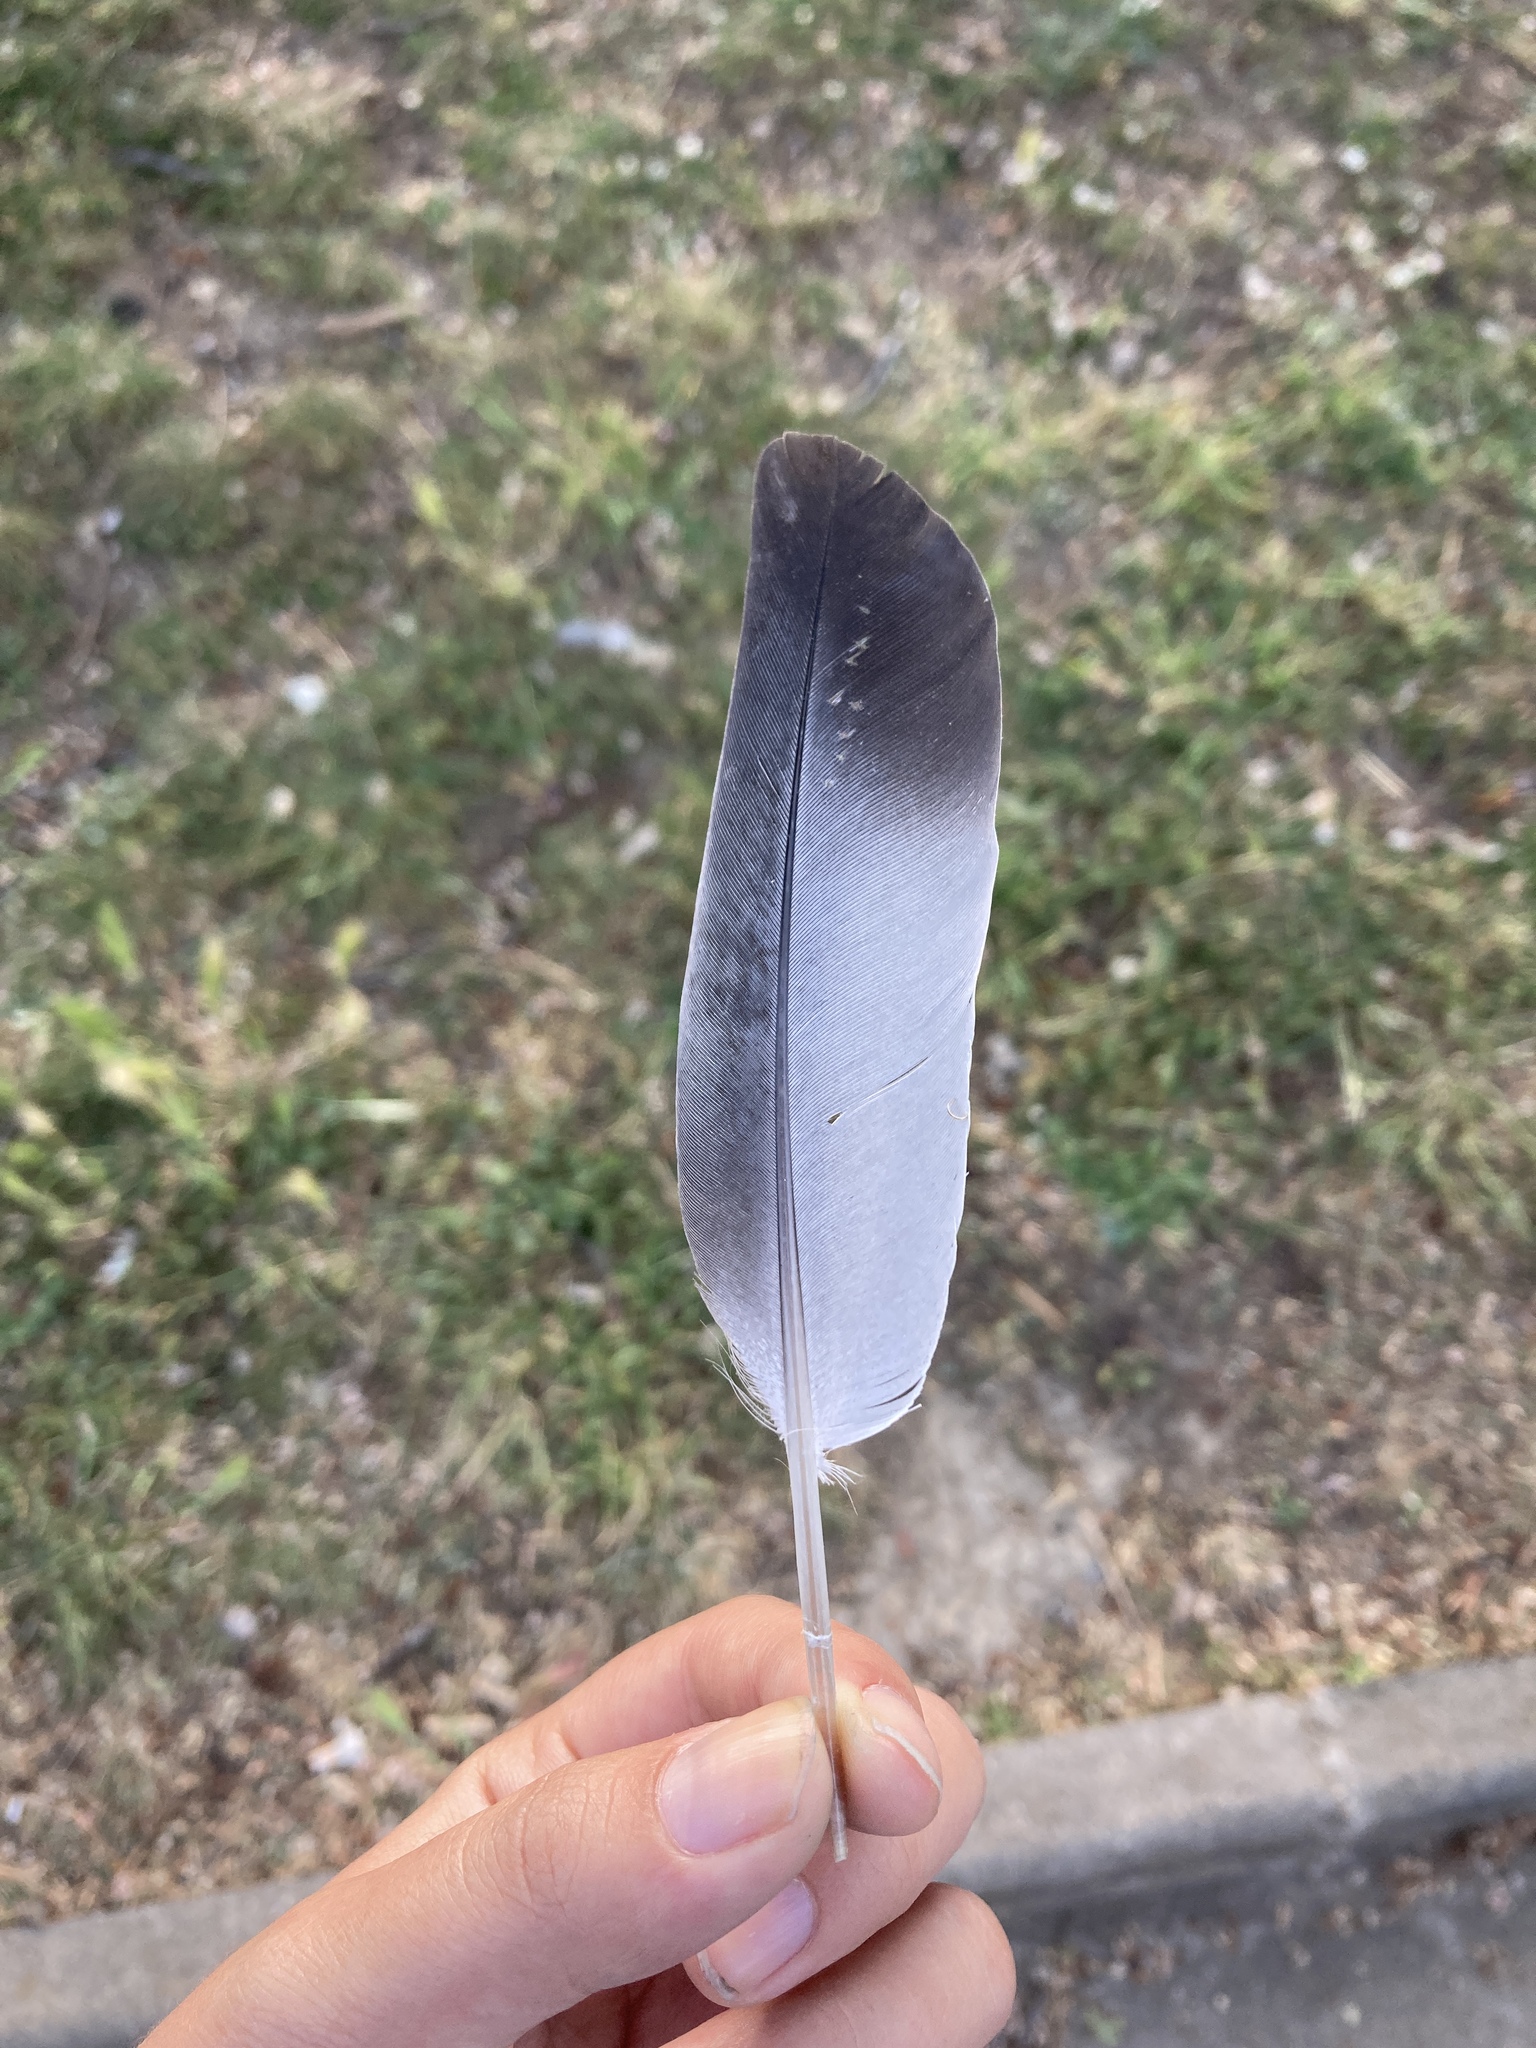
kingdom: Animalia
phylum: Chordata
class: Aves
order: Columbiformes
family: Columbidae
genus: Columba
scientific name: Columba livia
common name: Rock pigeon
